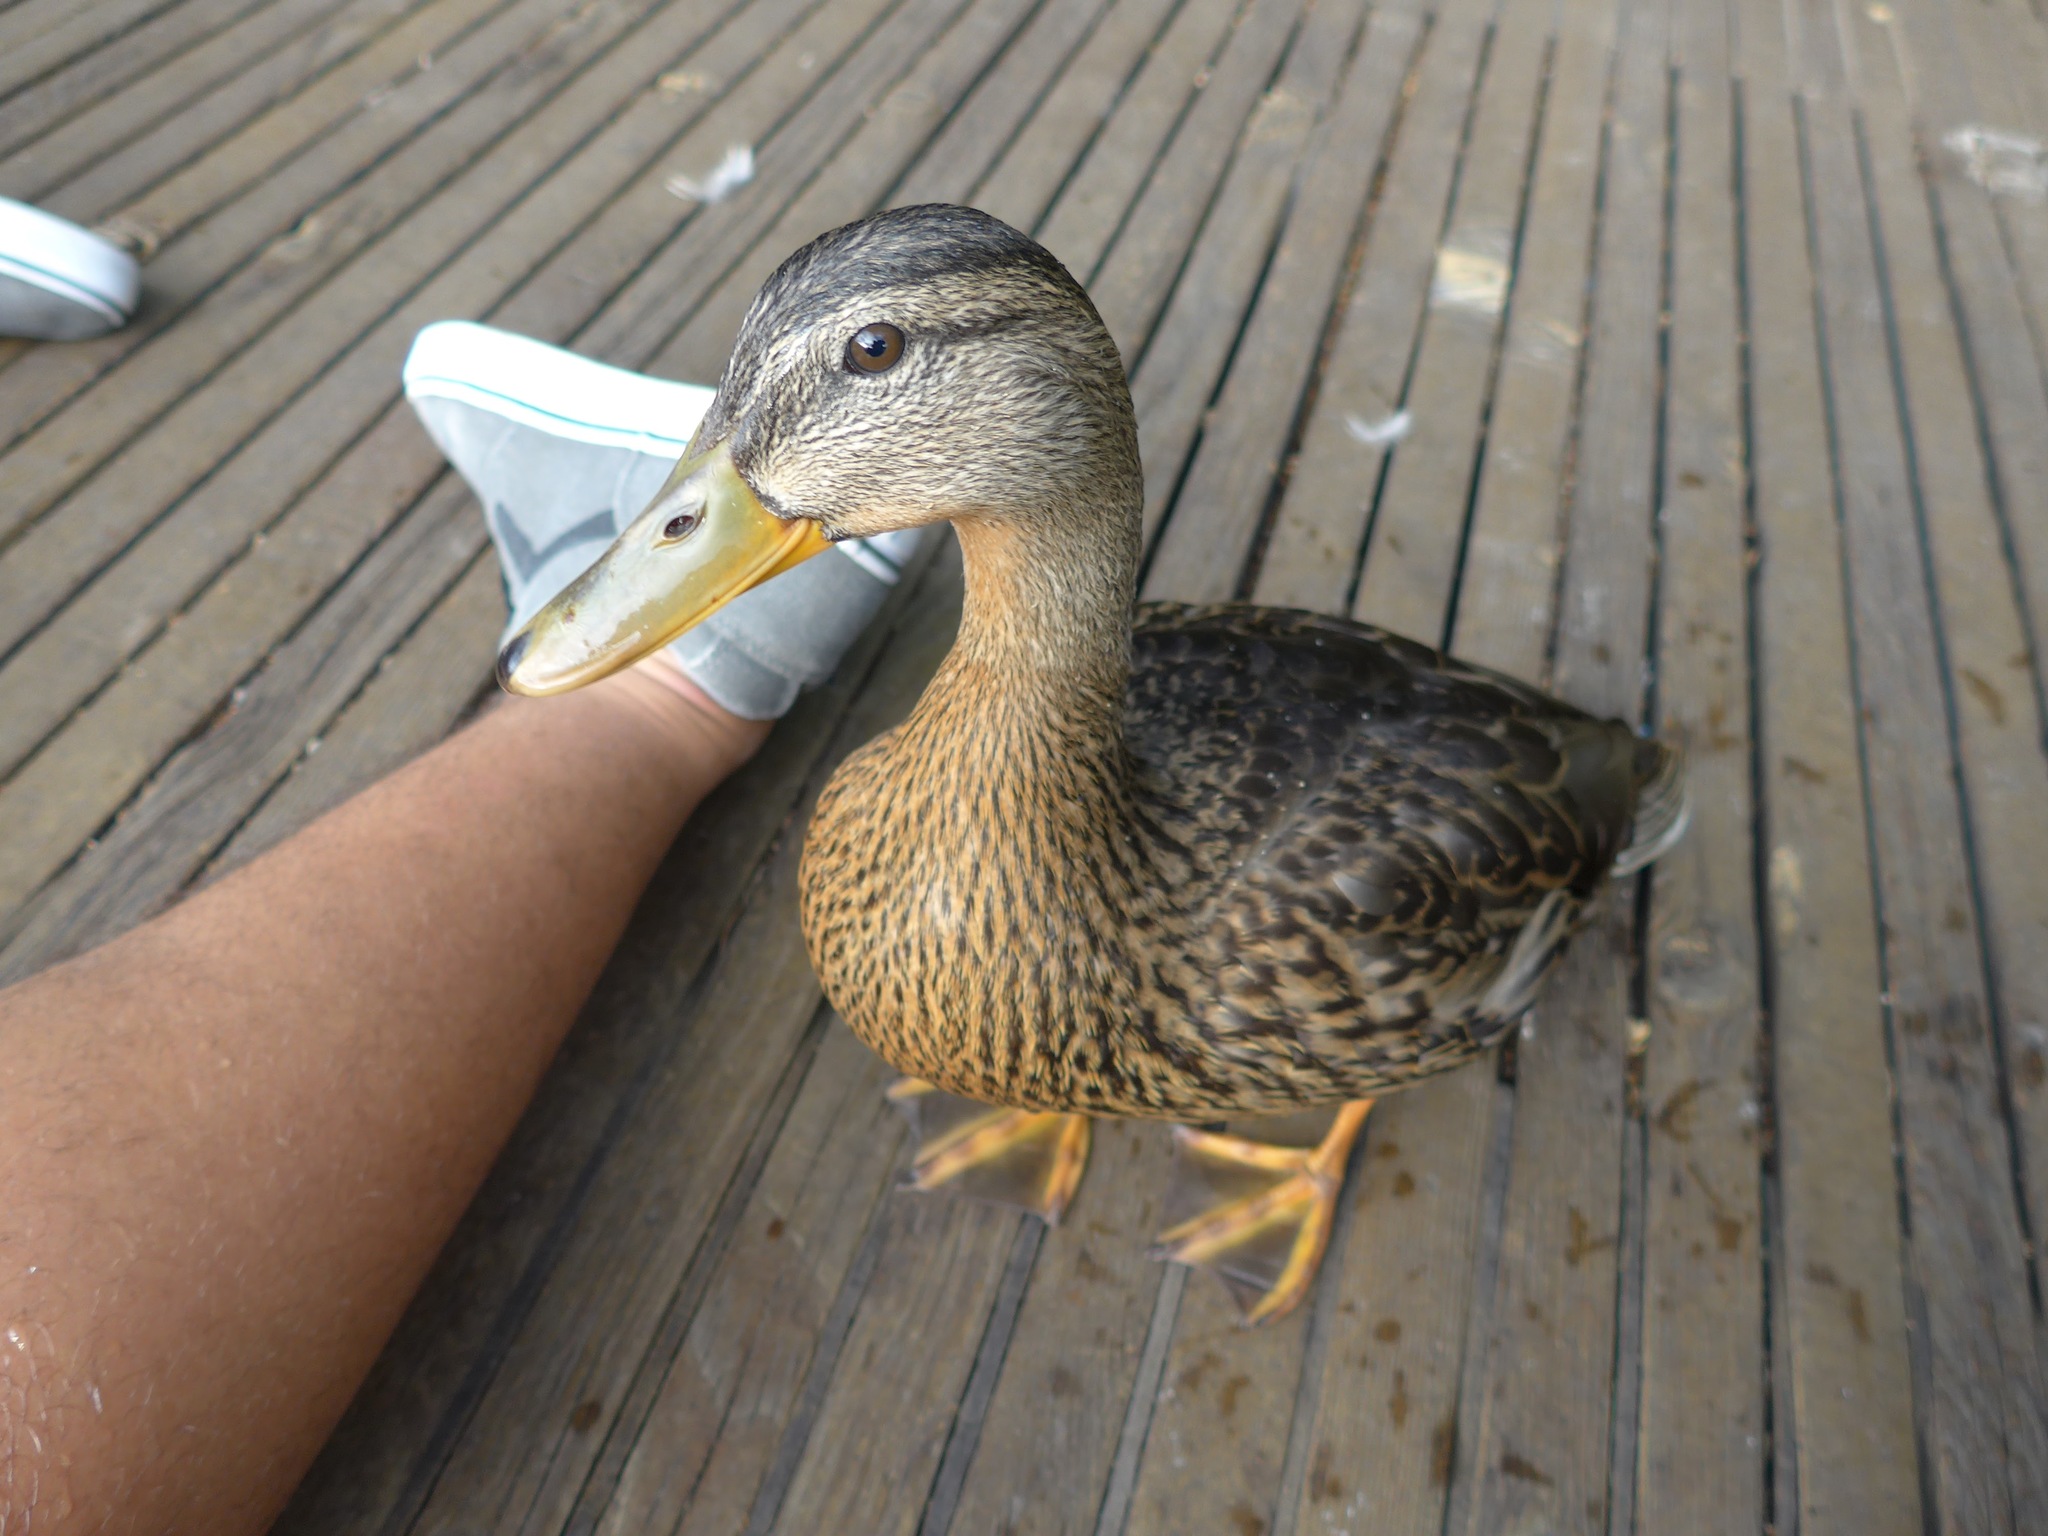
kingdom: Animalia
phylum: Chordata
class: Aves
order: Anseriformes
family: Anatidae
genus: Anas
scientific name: Anas platyrhynchos
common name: Mallard
